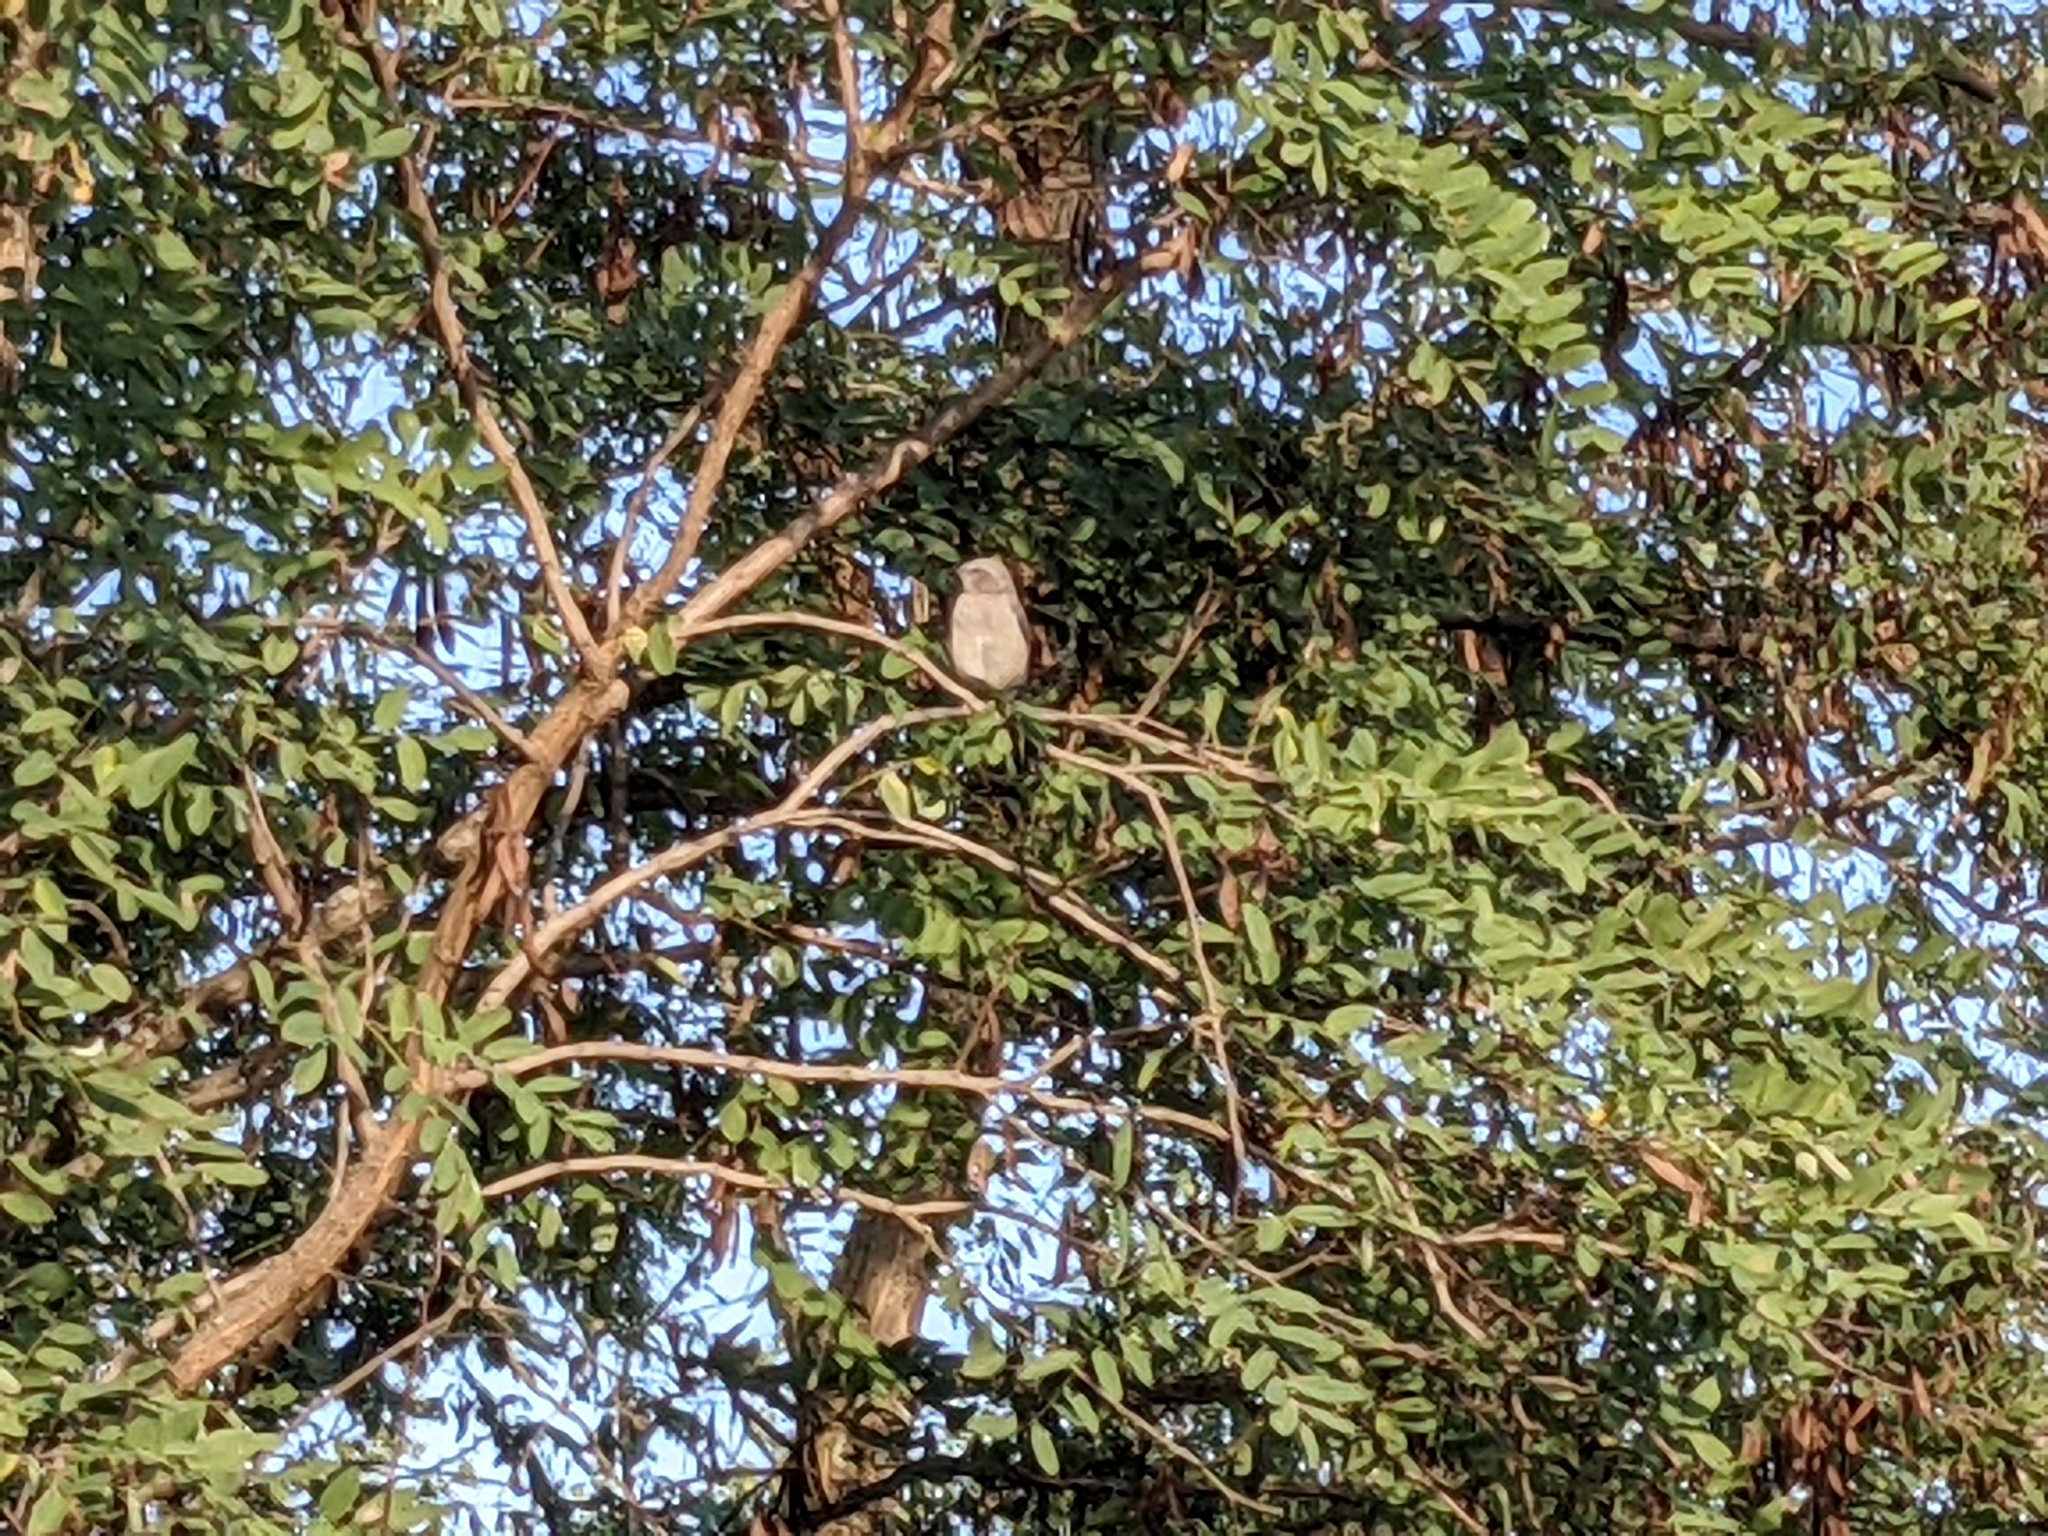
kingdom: Animalia
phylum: Chordata
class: Aves
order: Passeriformes
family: Mimidae
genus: Mimus
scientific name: Mimus polyglottos
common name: Northern mockingbird
